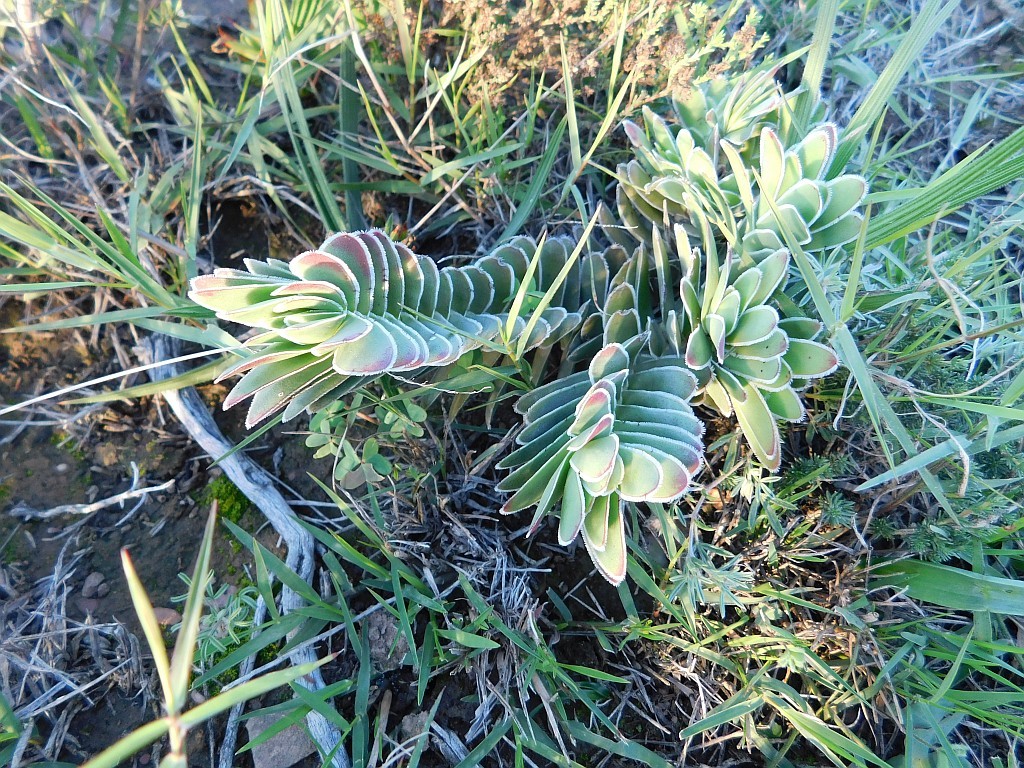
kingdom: Plantae
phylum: Tracheophyta
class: Magnoliopsida
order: Saxifragales
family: Crassulaceae
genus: Crassula
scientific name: Crassula ciliata
